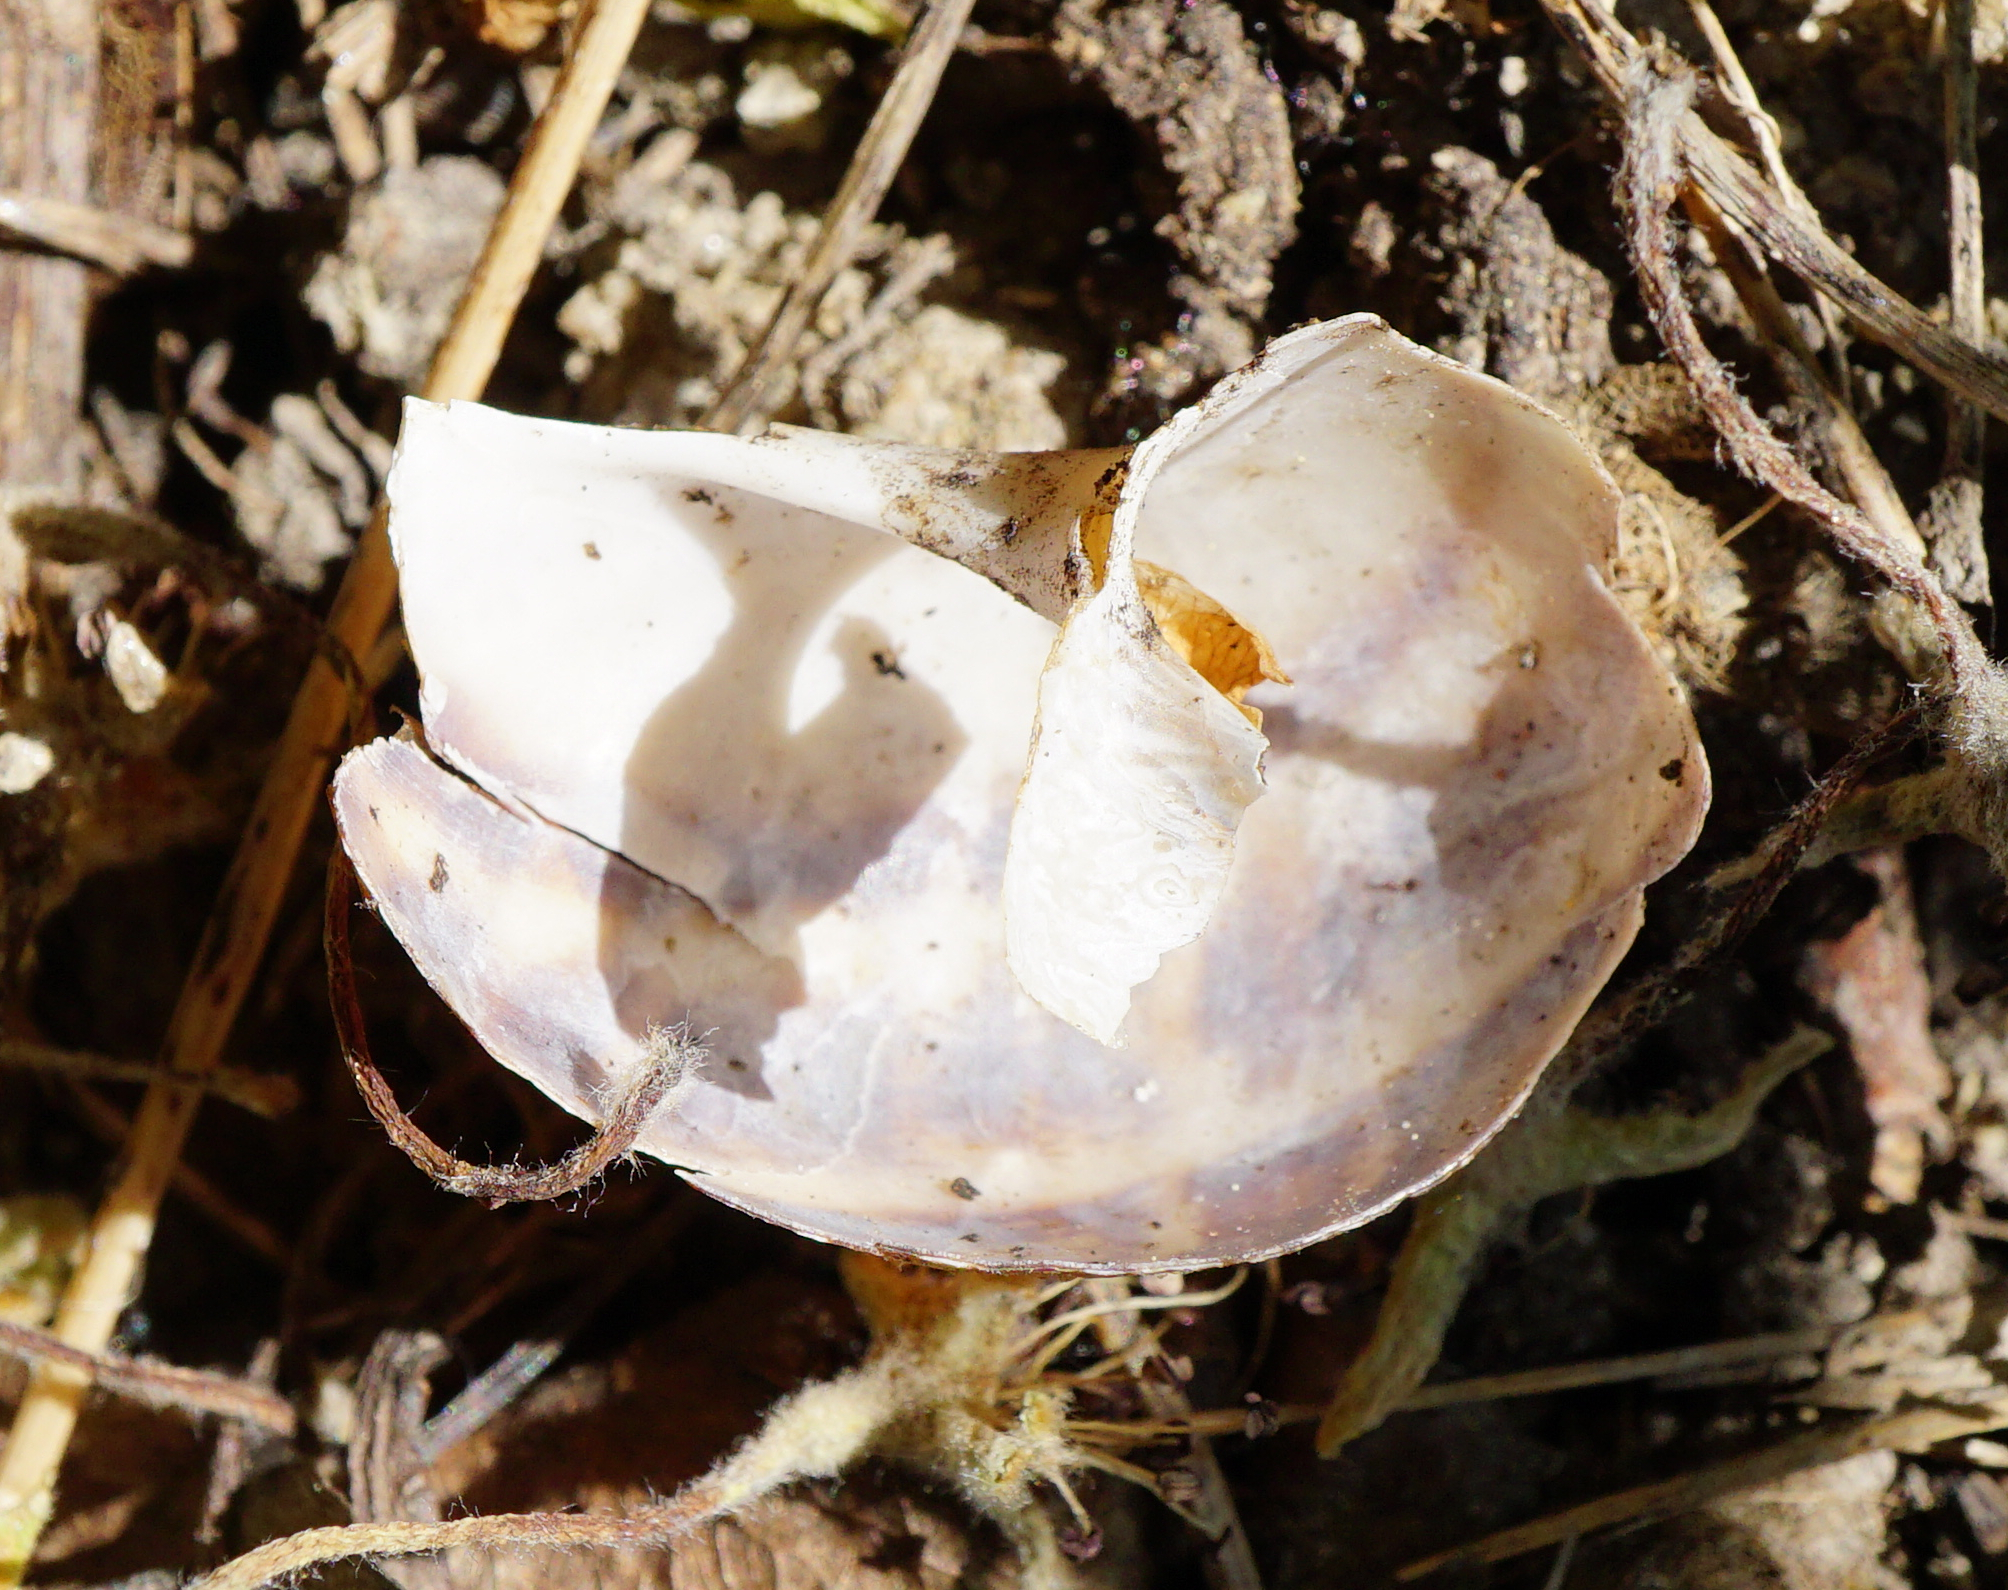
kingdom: Animalia
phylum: Mollusca
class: Gastropoda
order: Stylommatophora
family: Helicidae
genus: Cornu
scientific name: Cornu aspersum
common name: Brown garden snail
